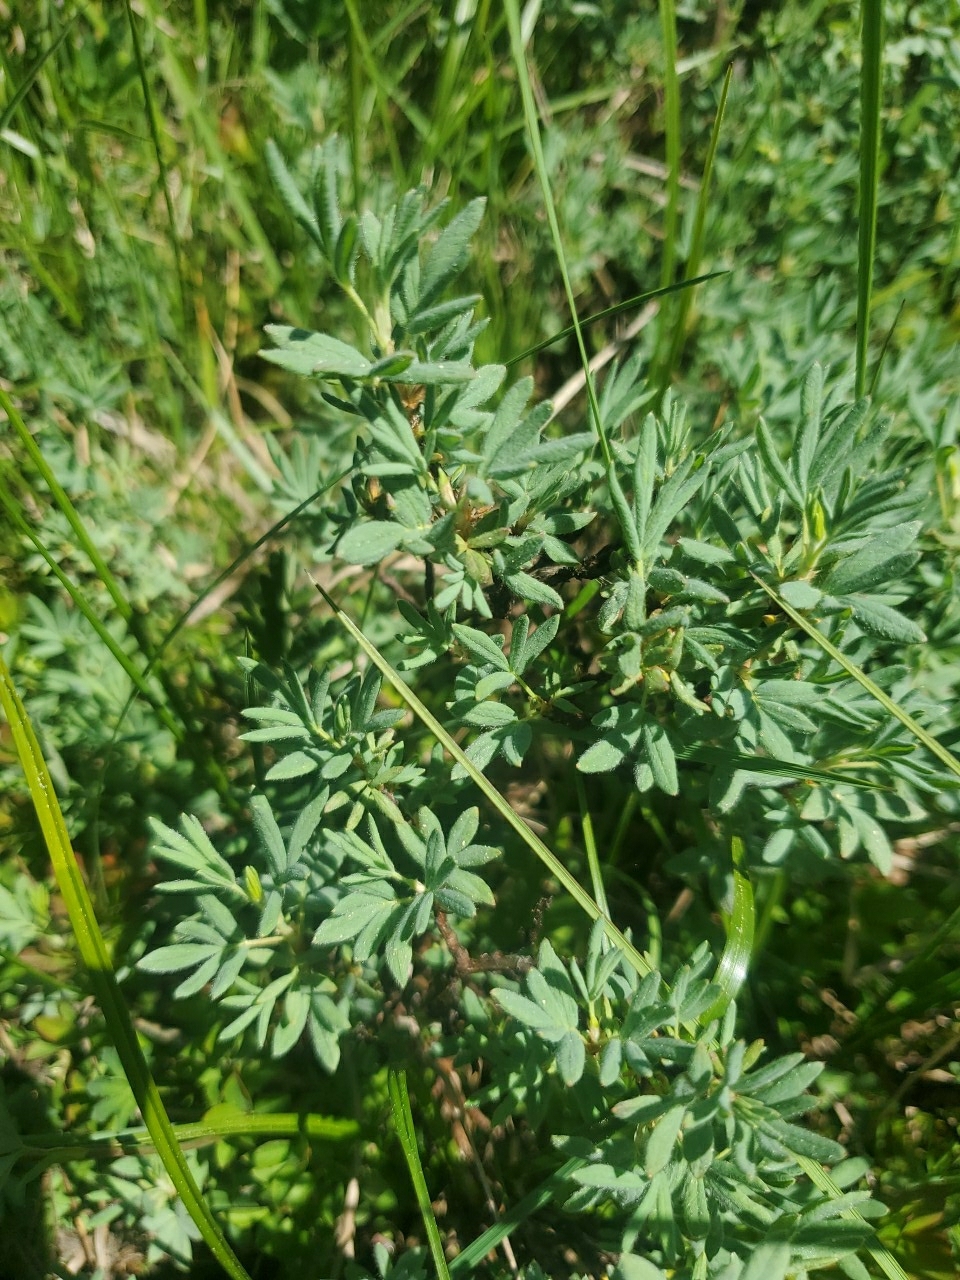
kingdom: Plantae
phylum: Tracheophyta
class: Magnoliopsida
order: Rosales
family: Rosaceae
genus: Dasiphora
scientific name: Dasiphora fruticosa
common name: Shrubby cinquefoil
